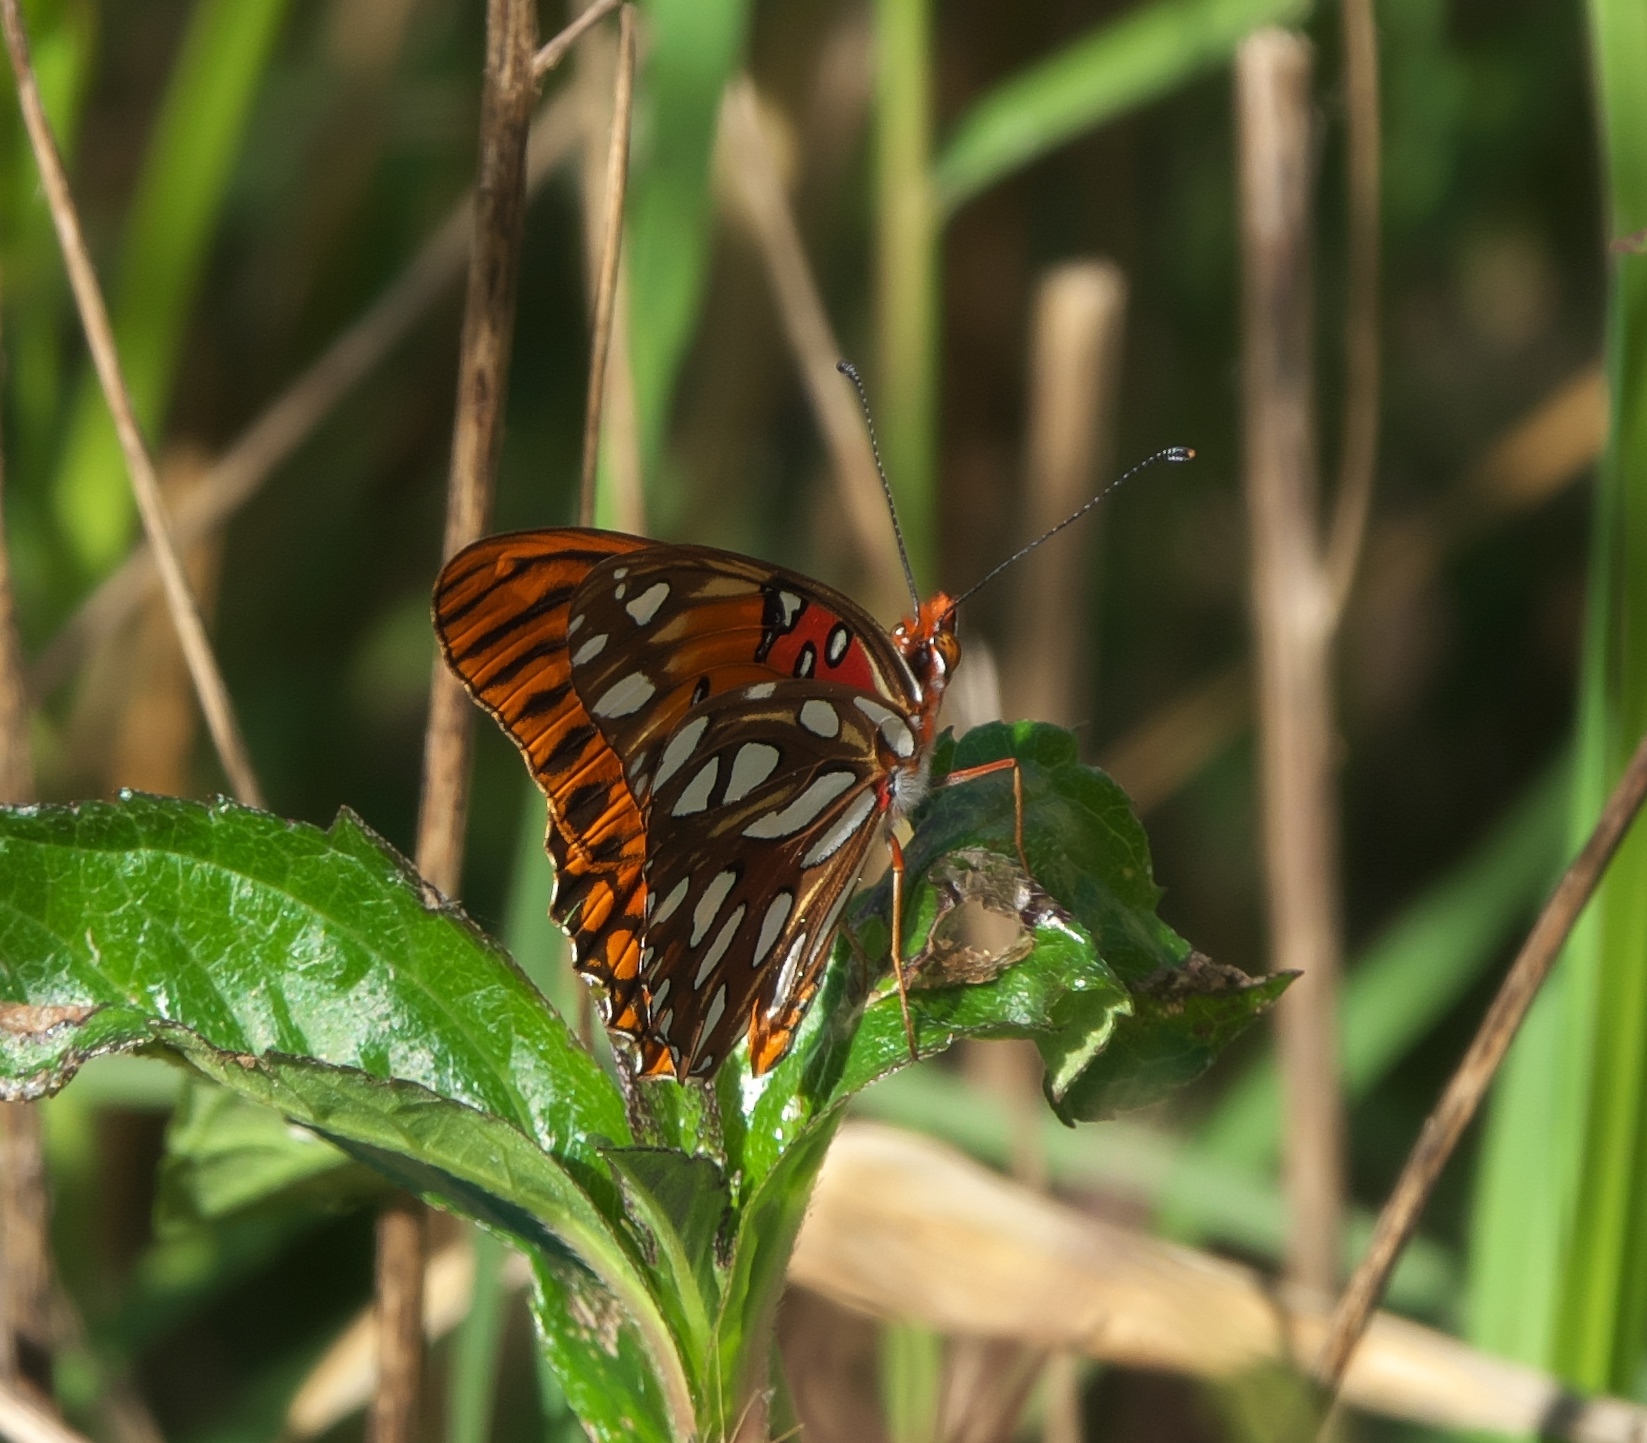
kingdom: Animalia
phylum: Arthropoda
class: Insecta
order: Lepidoptera
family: Nymphalidae
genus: Dione
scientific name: Dione vanillae
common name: Gulf fritillary
